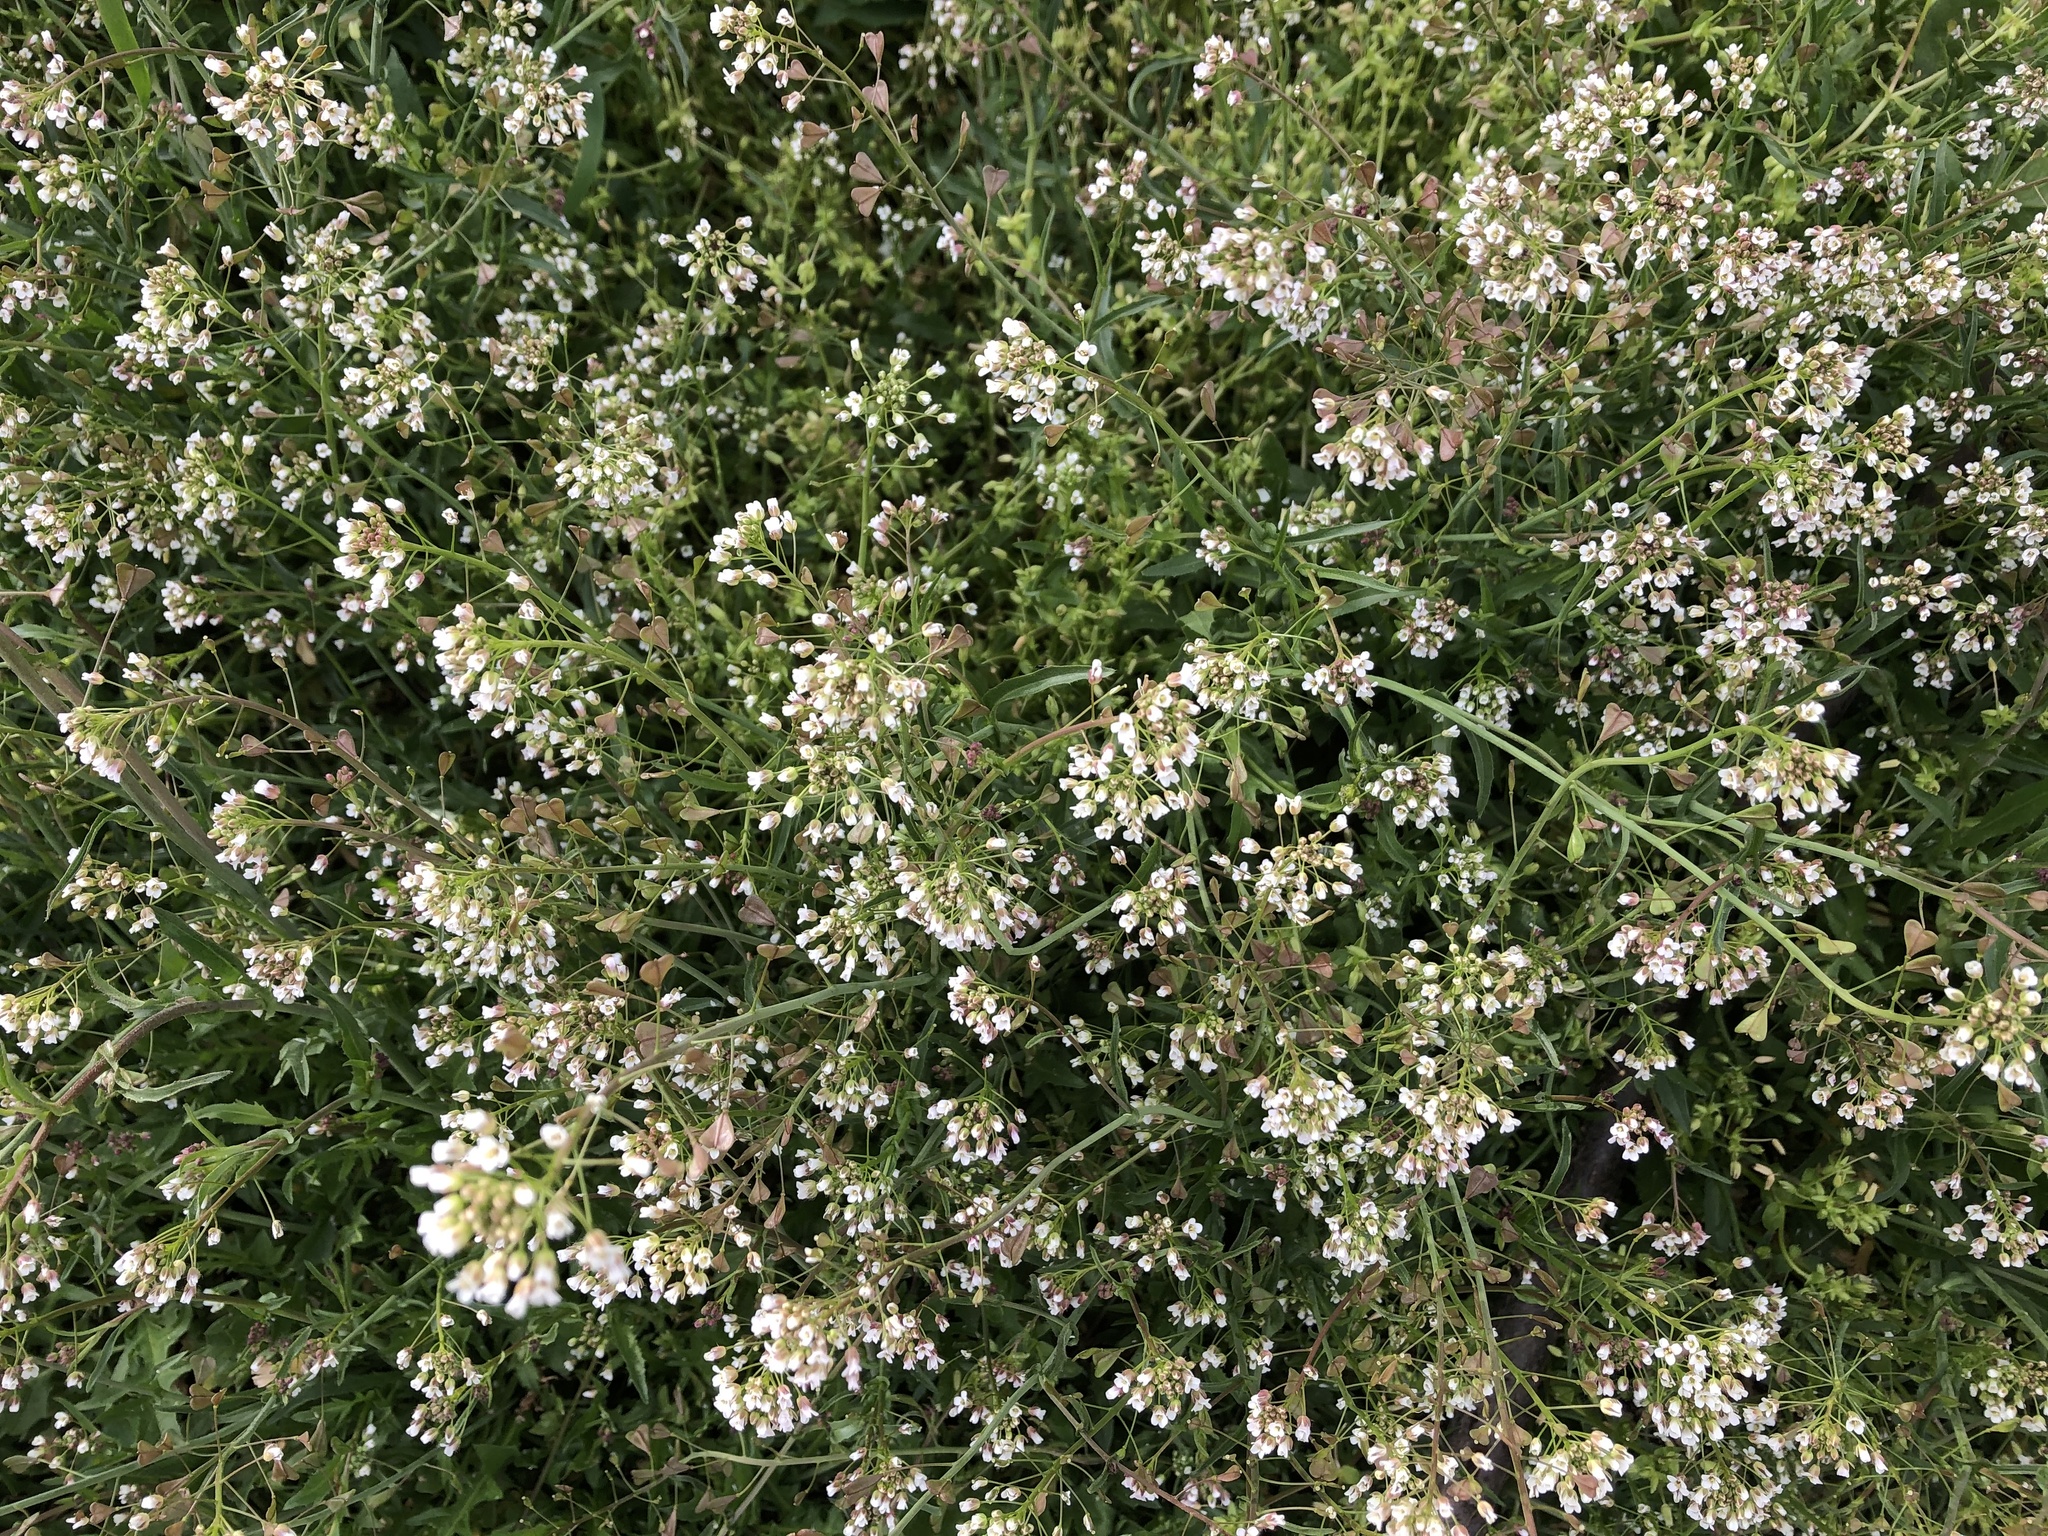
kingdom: Plantae
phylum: Tracheophyta
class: Magnoliopsida
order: Brassicales
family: Brassicaceae
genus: Capsella
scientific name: Capsella bursa-pastoris
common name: Shepherd's purse
